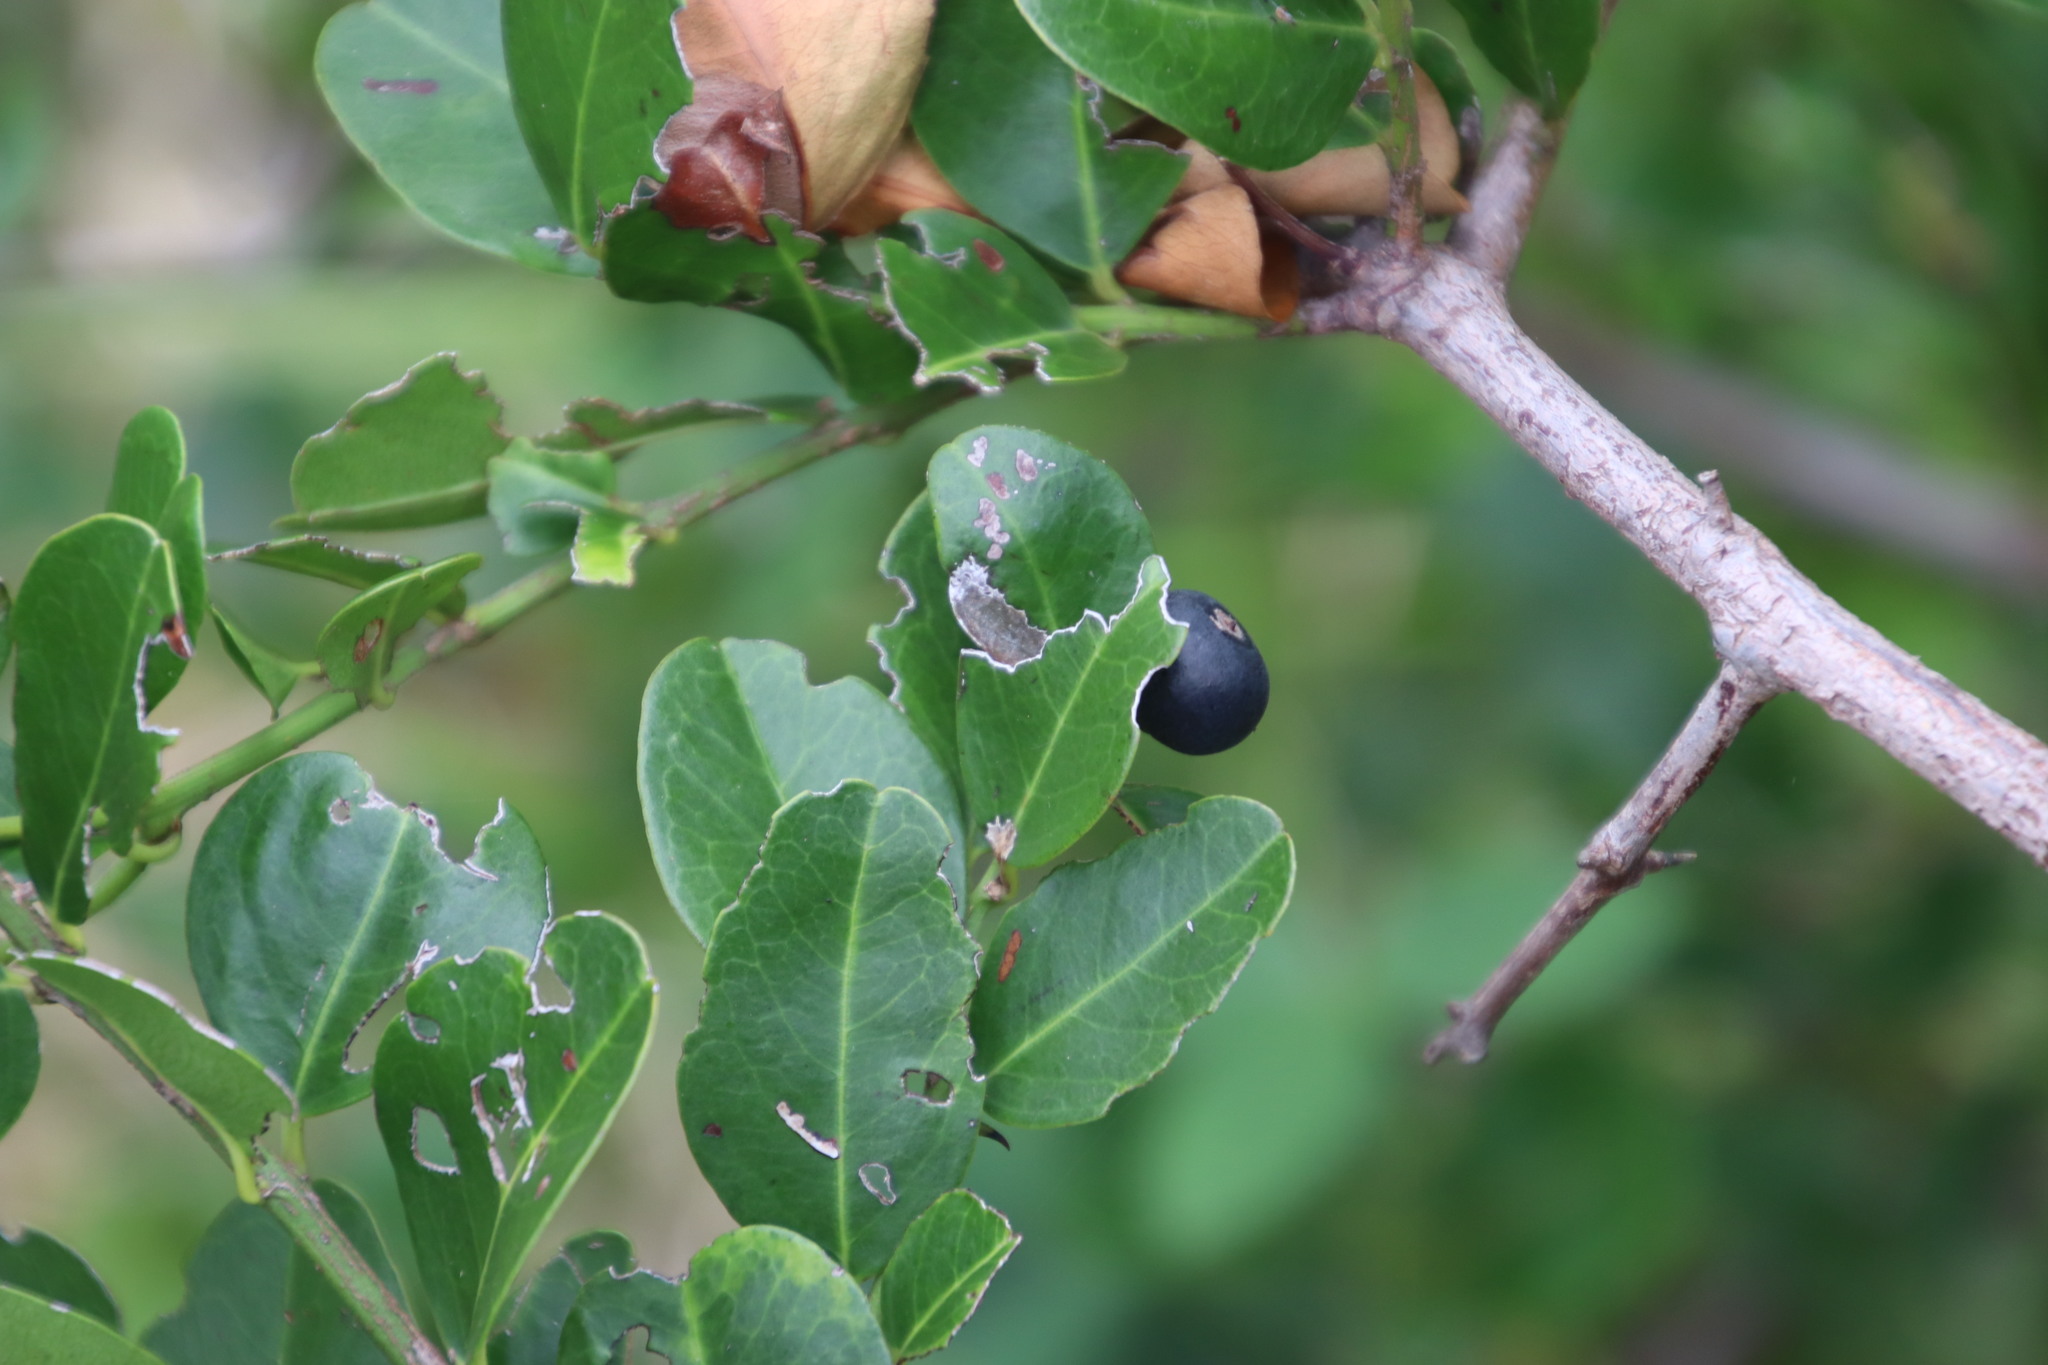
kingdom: Plantae
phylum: Tracheophyta
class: Magnoliopsida
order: Rosales
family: Rhamnaceae
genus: Scutia
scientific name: Scutia myrtina
